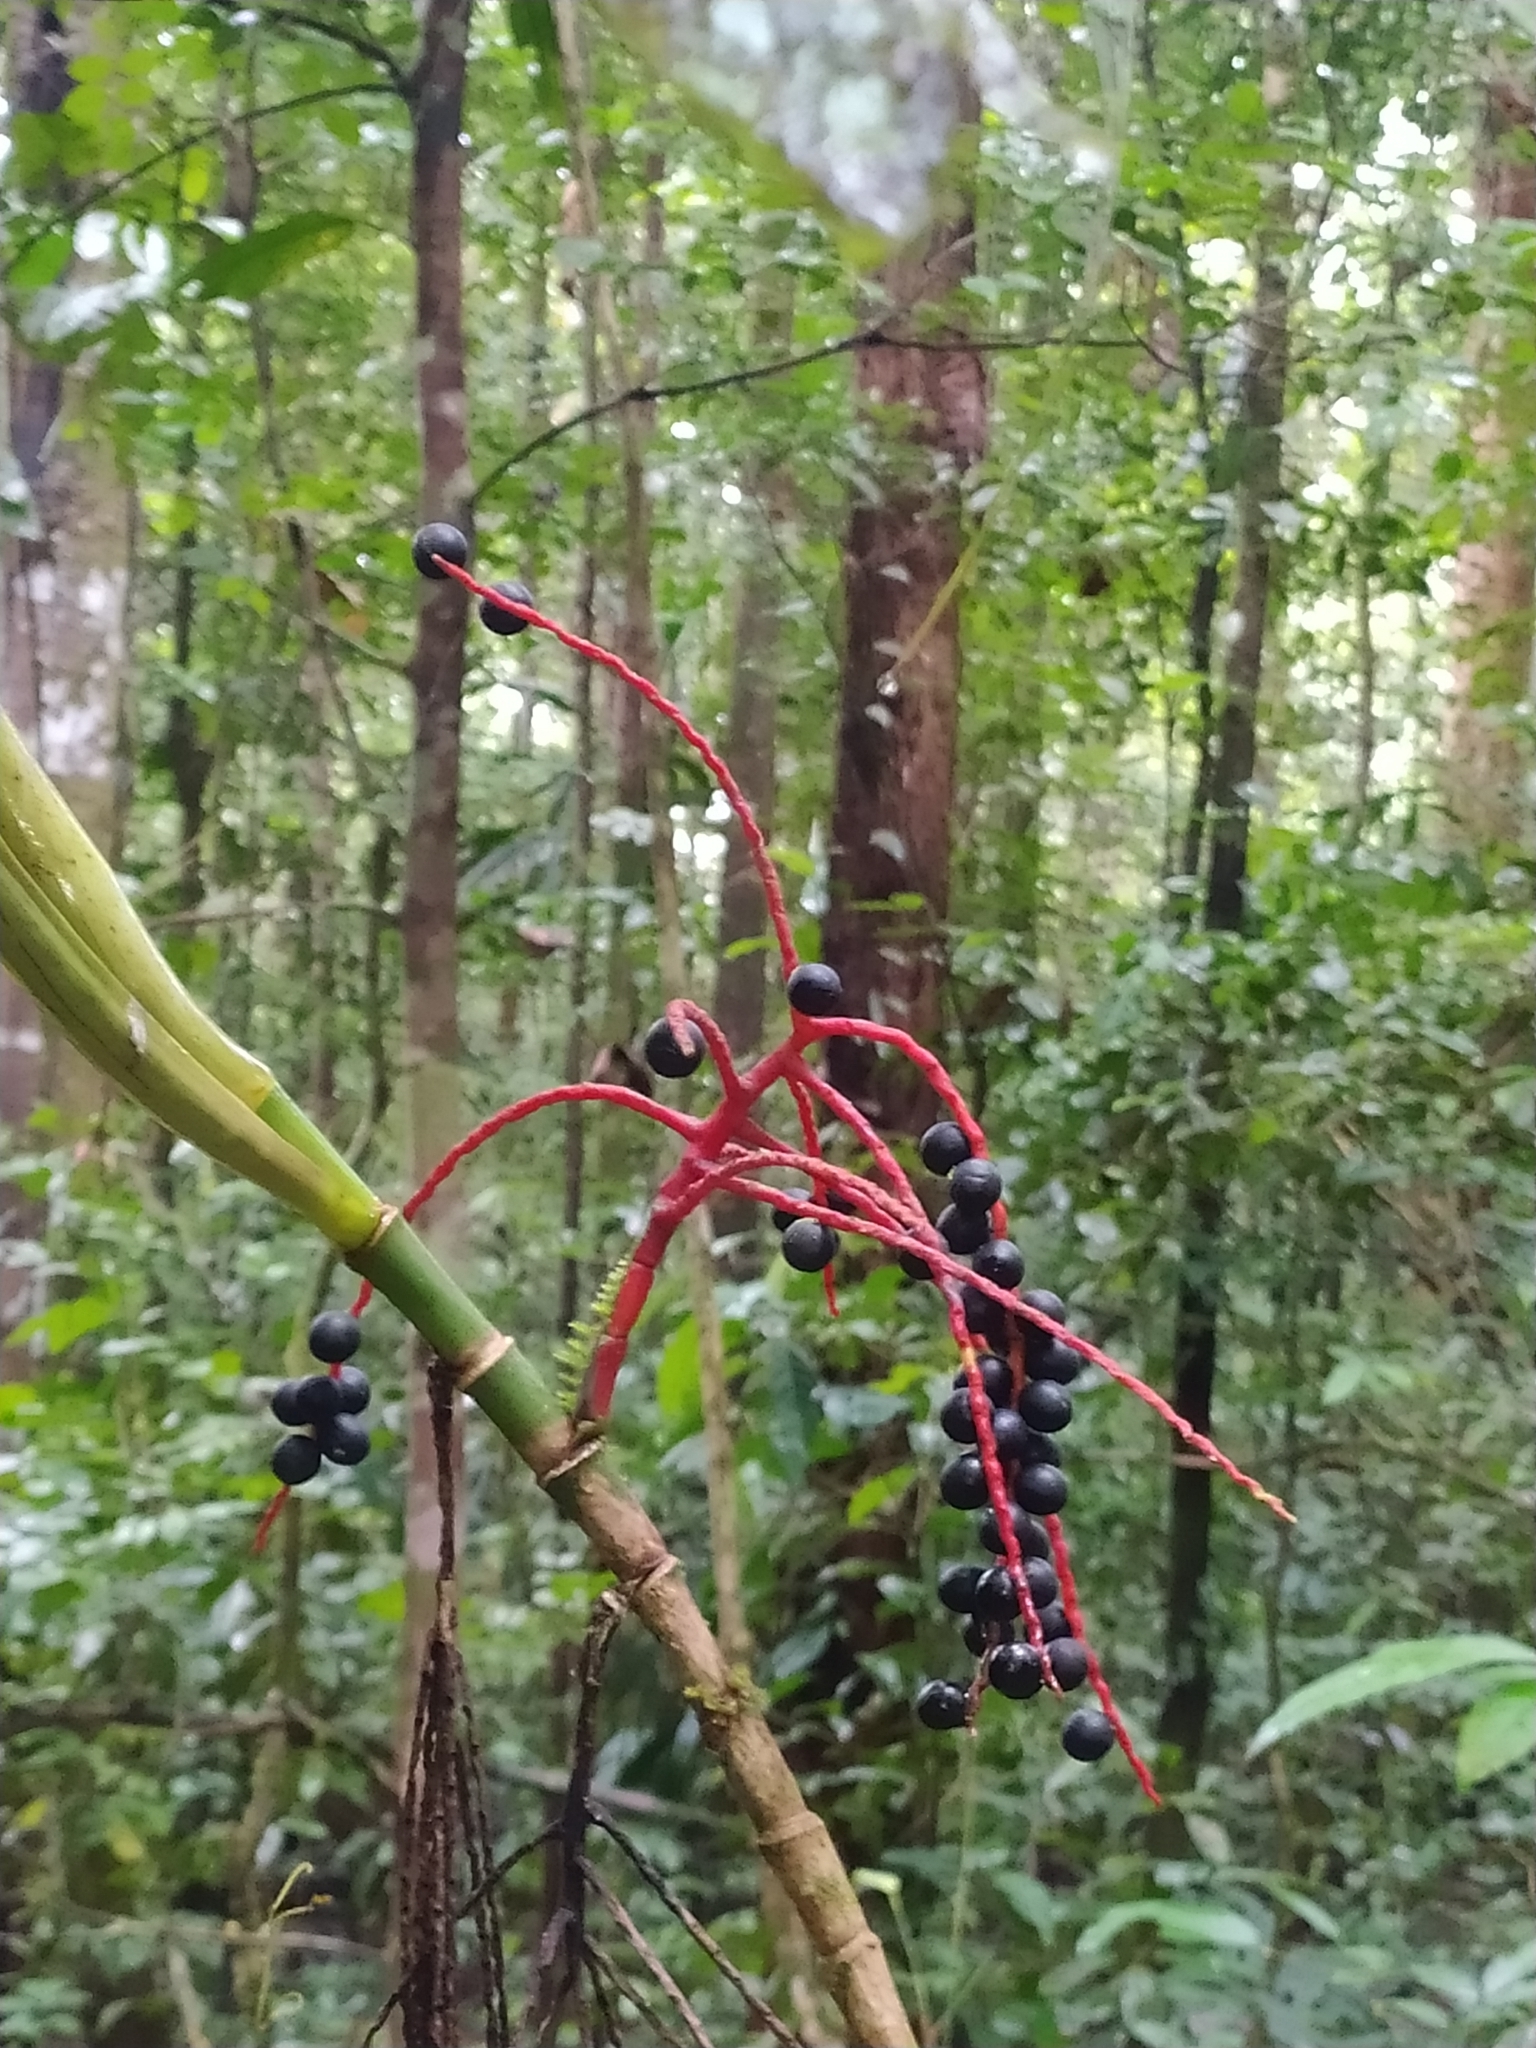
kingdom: Plantae
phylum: Tracheophyta
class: Liliopsida
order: Arecales
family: Arecaceae
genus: Hyospathe
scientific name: Hyospathe elegans
